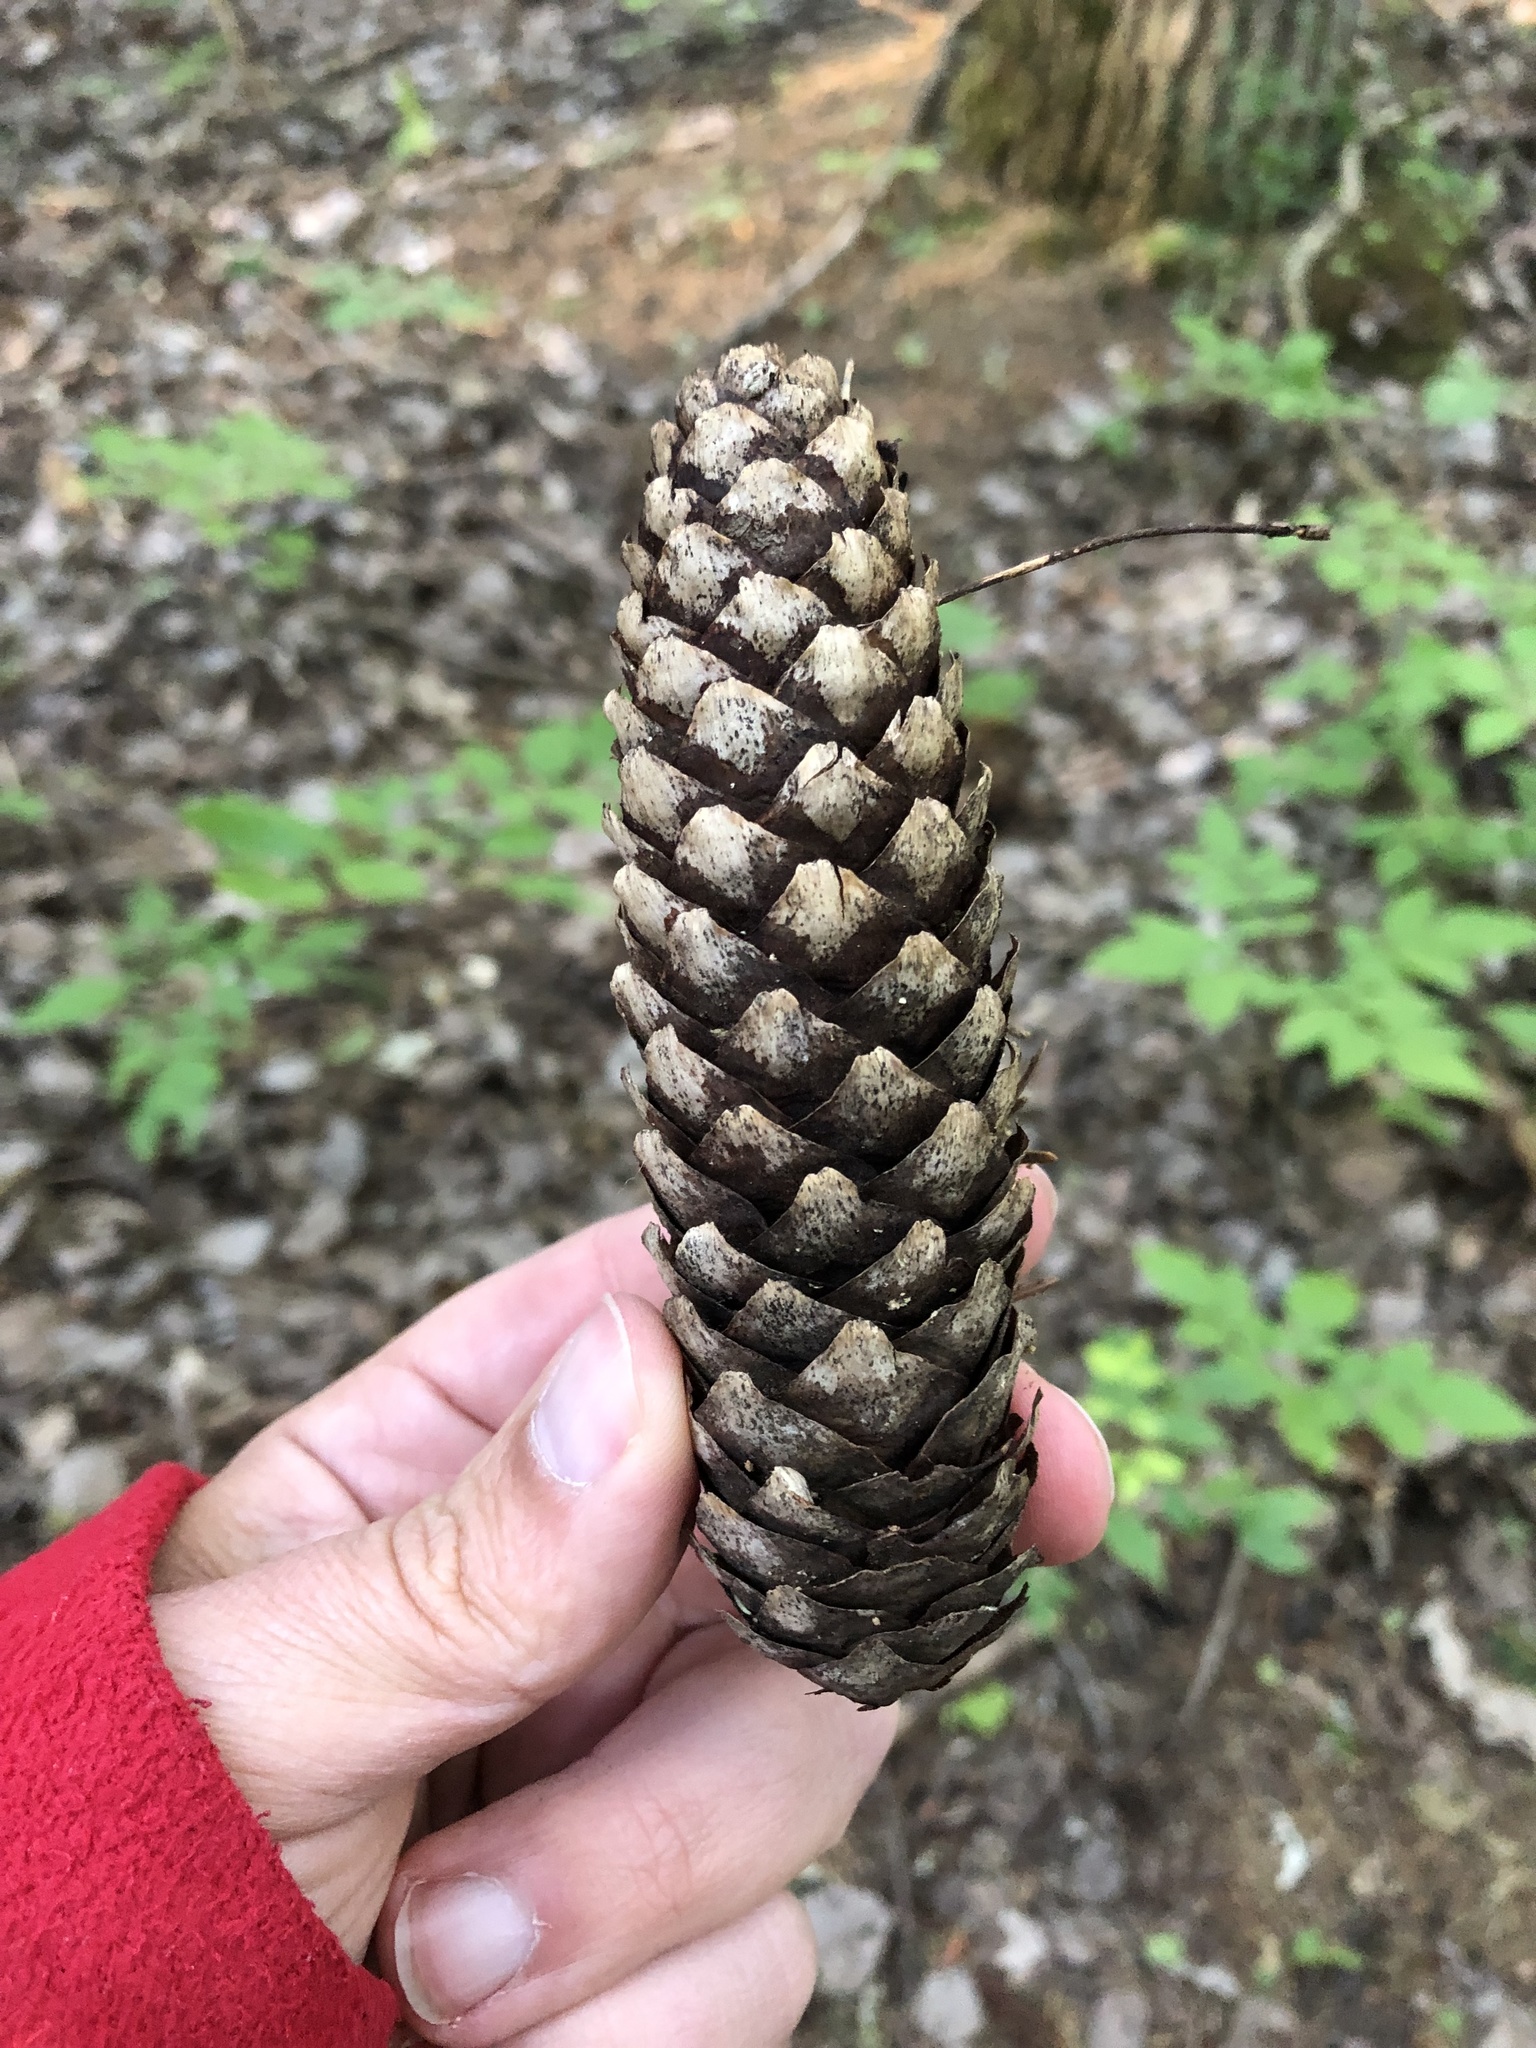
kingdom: Plantae
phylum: Tracheophyta
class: Pinopsida
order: Pinales
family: Pinaceae
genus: Picea
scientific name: Picea abies
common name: Norway spruce
